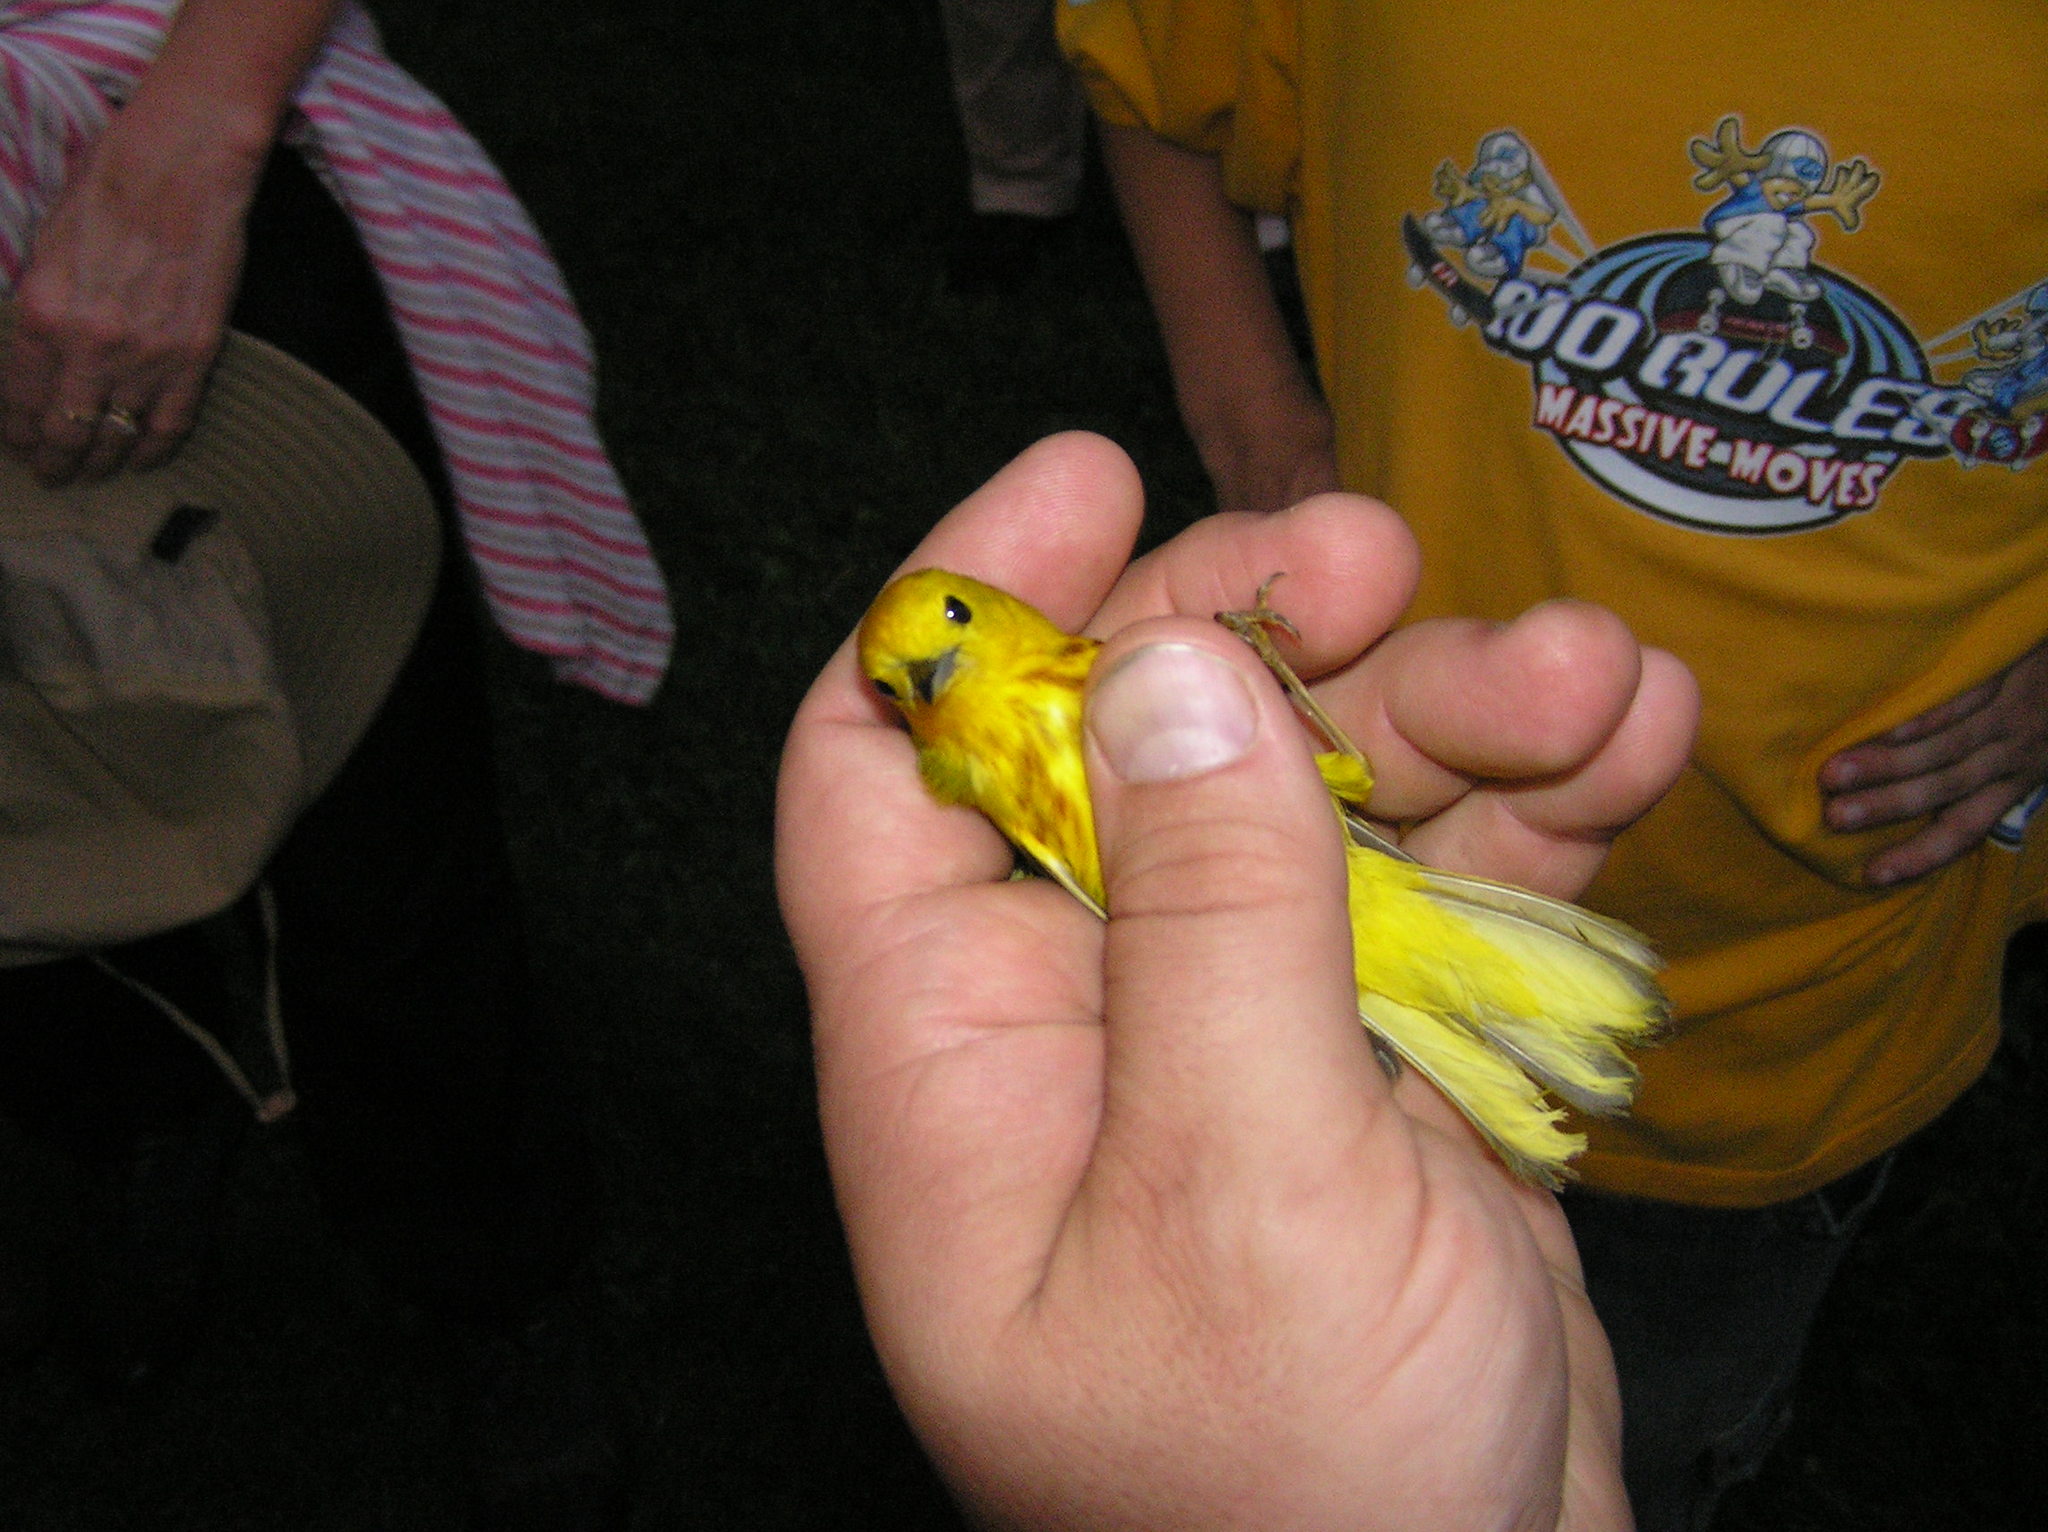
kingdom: Animalia
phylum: Chordata
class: Aves
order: Passeriformes
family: Parulidae
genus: Setophaga
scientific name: Setophaga petechia
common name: Yellow warbler
